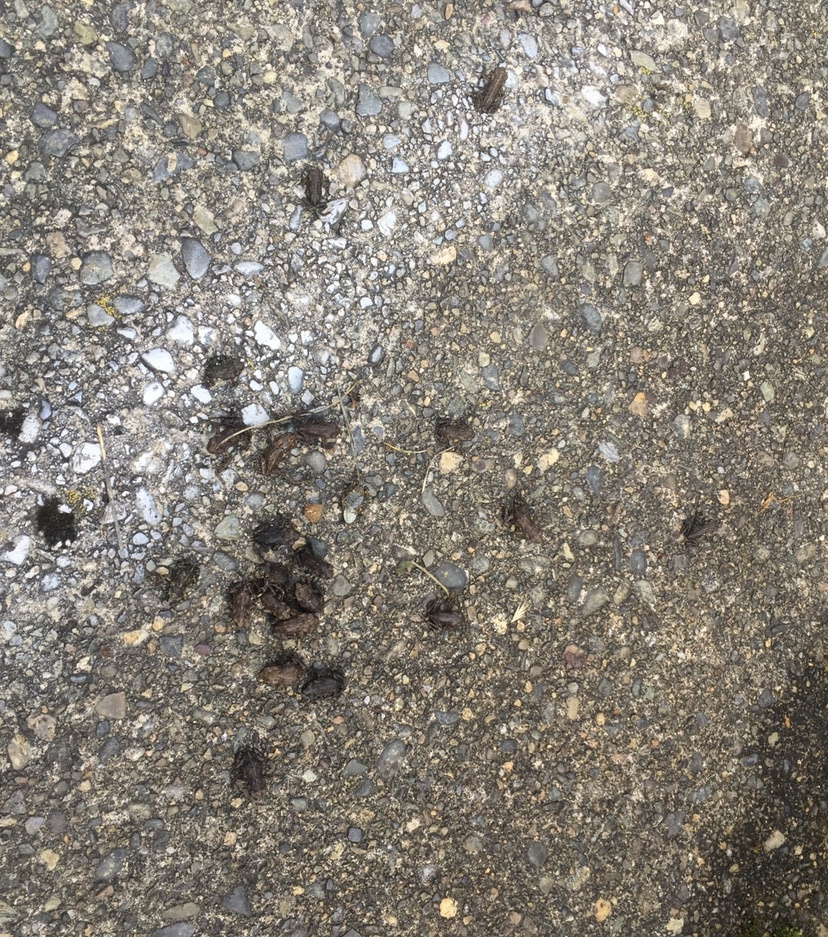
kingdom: Animalia
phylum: Chordata
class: Amphibia
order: Anura
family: Bufonidae
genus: Anaxyrus
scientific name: Anaxyrus boreas
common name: Western toad
